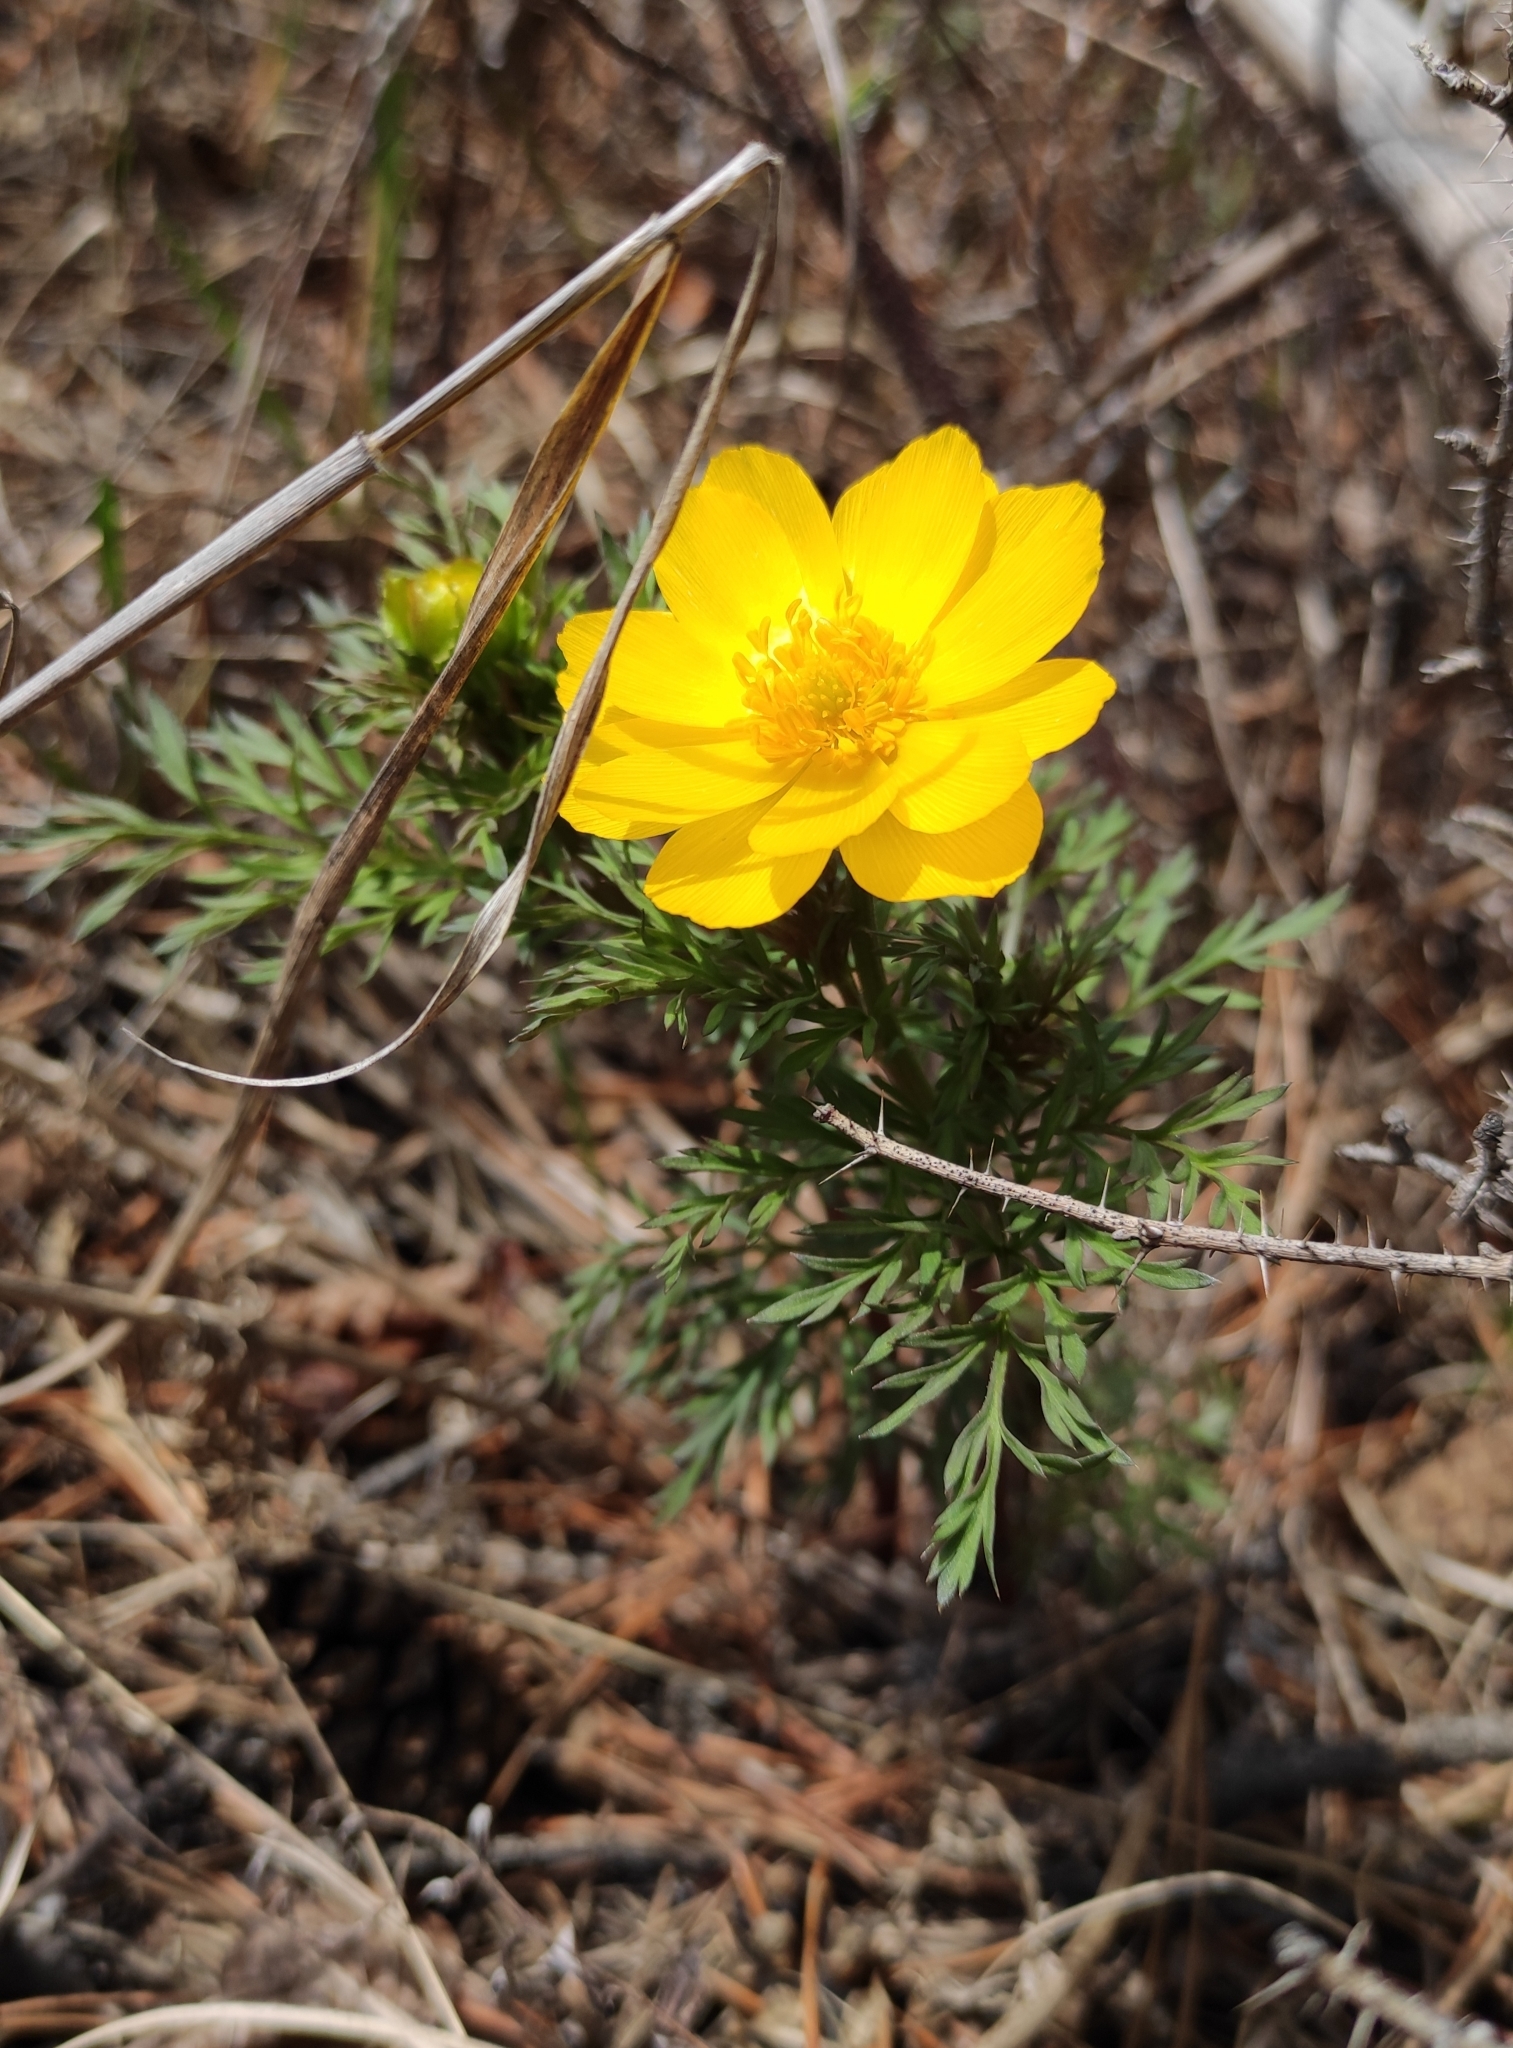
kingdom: Plantae
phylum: Tracheophyta
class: Magnoliopsida
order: Ranunculales
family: Ranunculaceae
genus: Adonis
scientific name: Adonis
